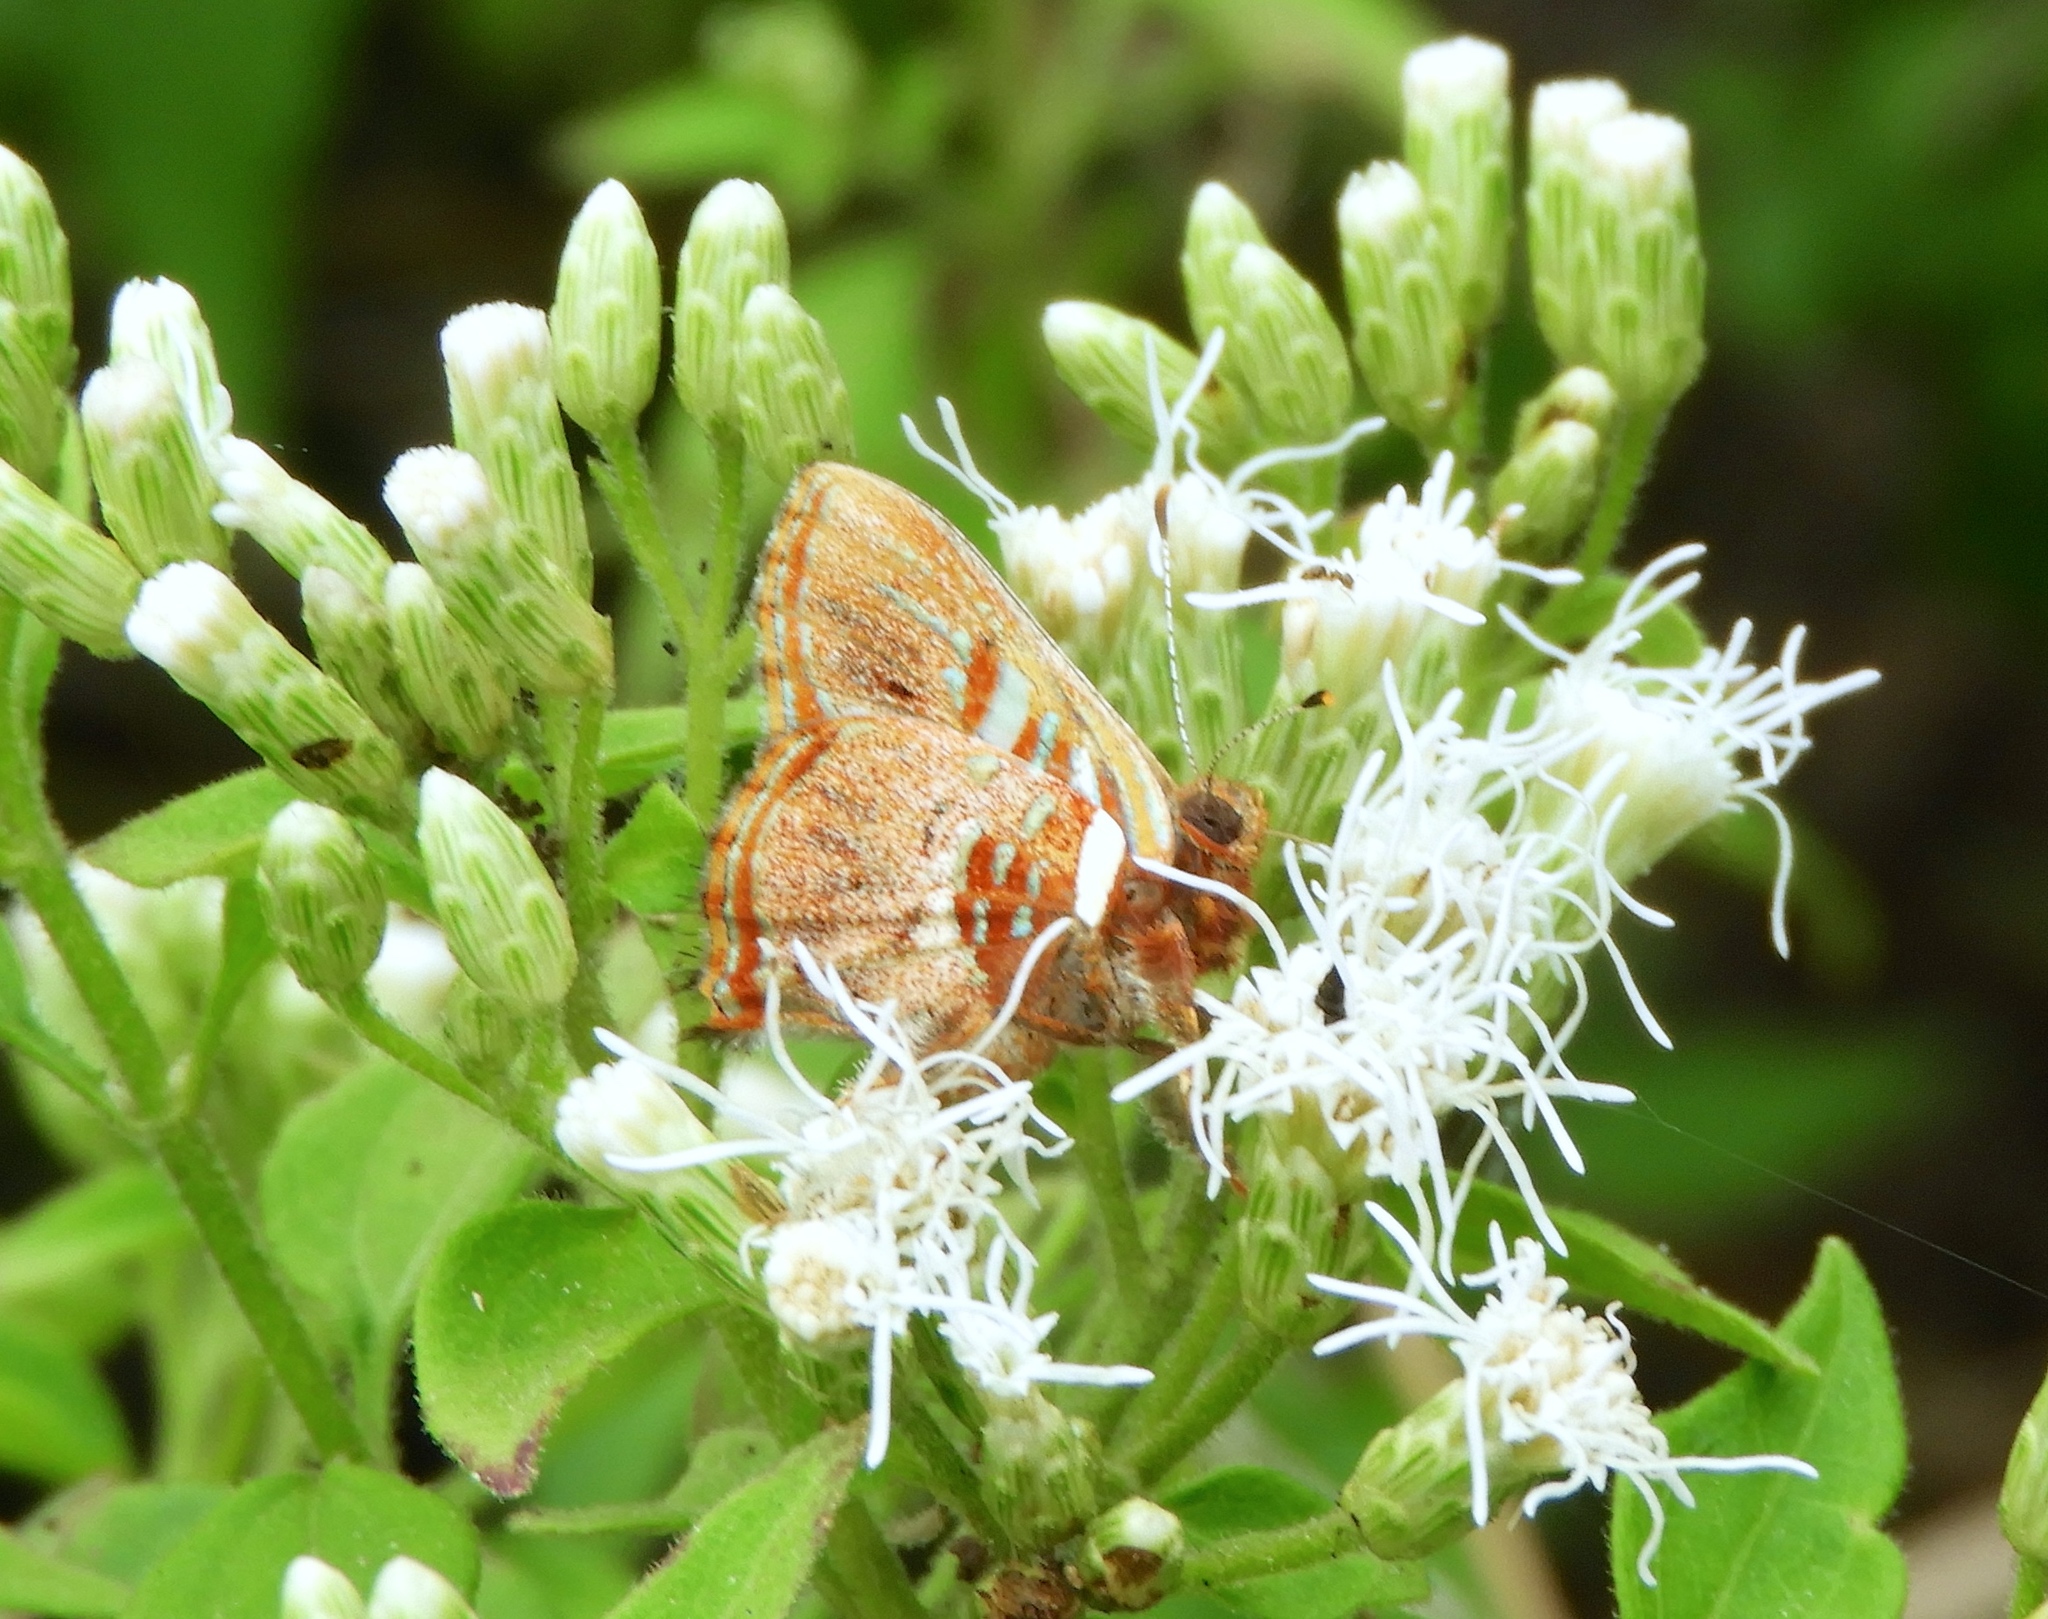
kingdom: Animalia
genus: Anteros
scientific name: Anteros carausius
